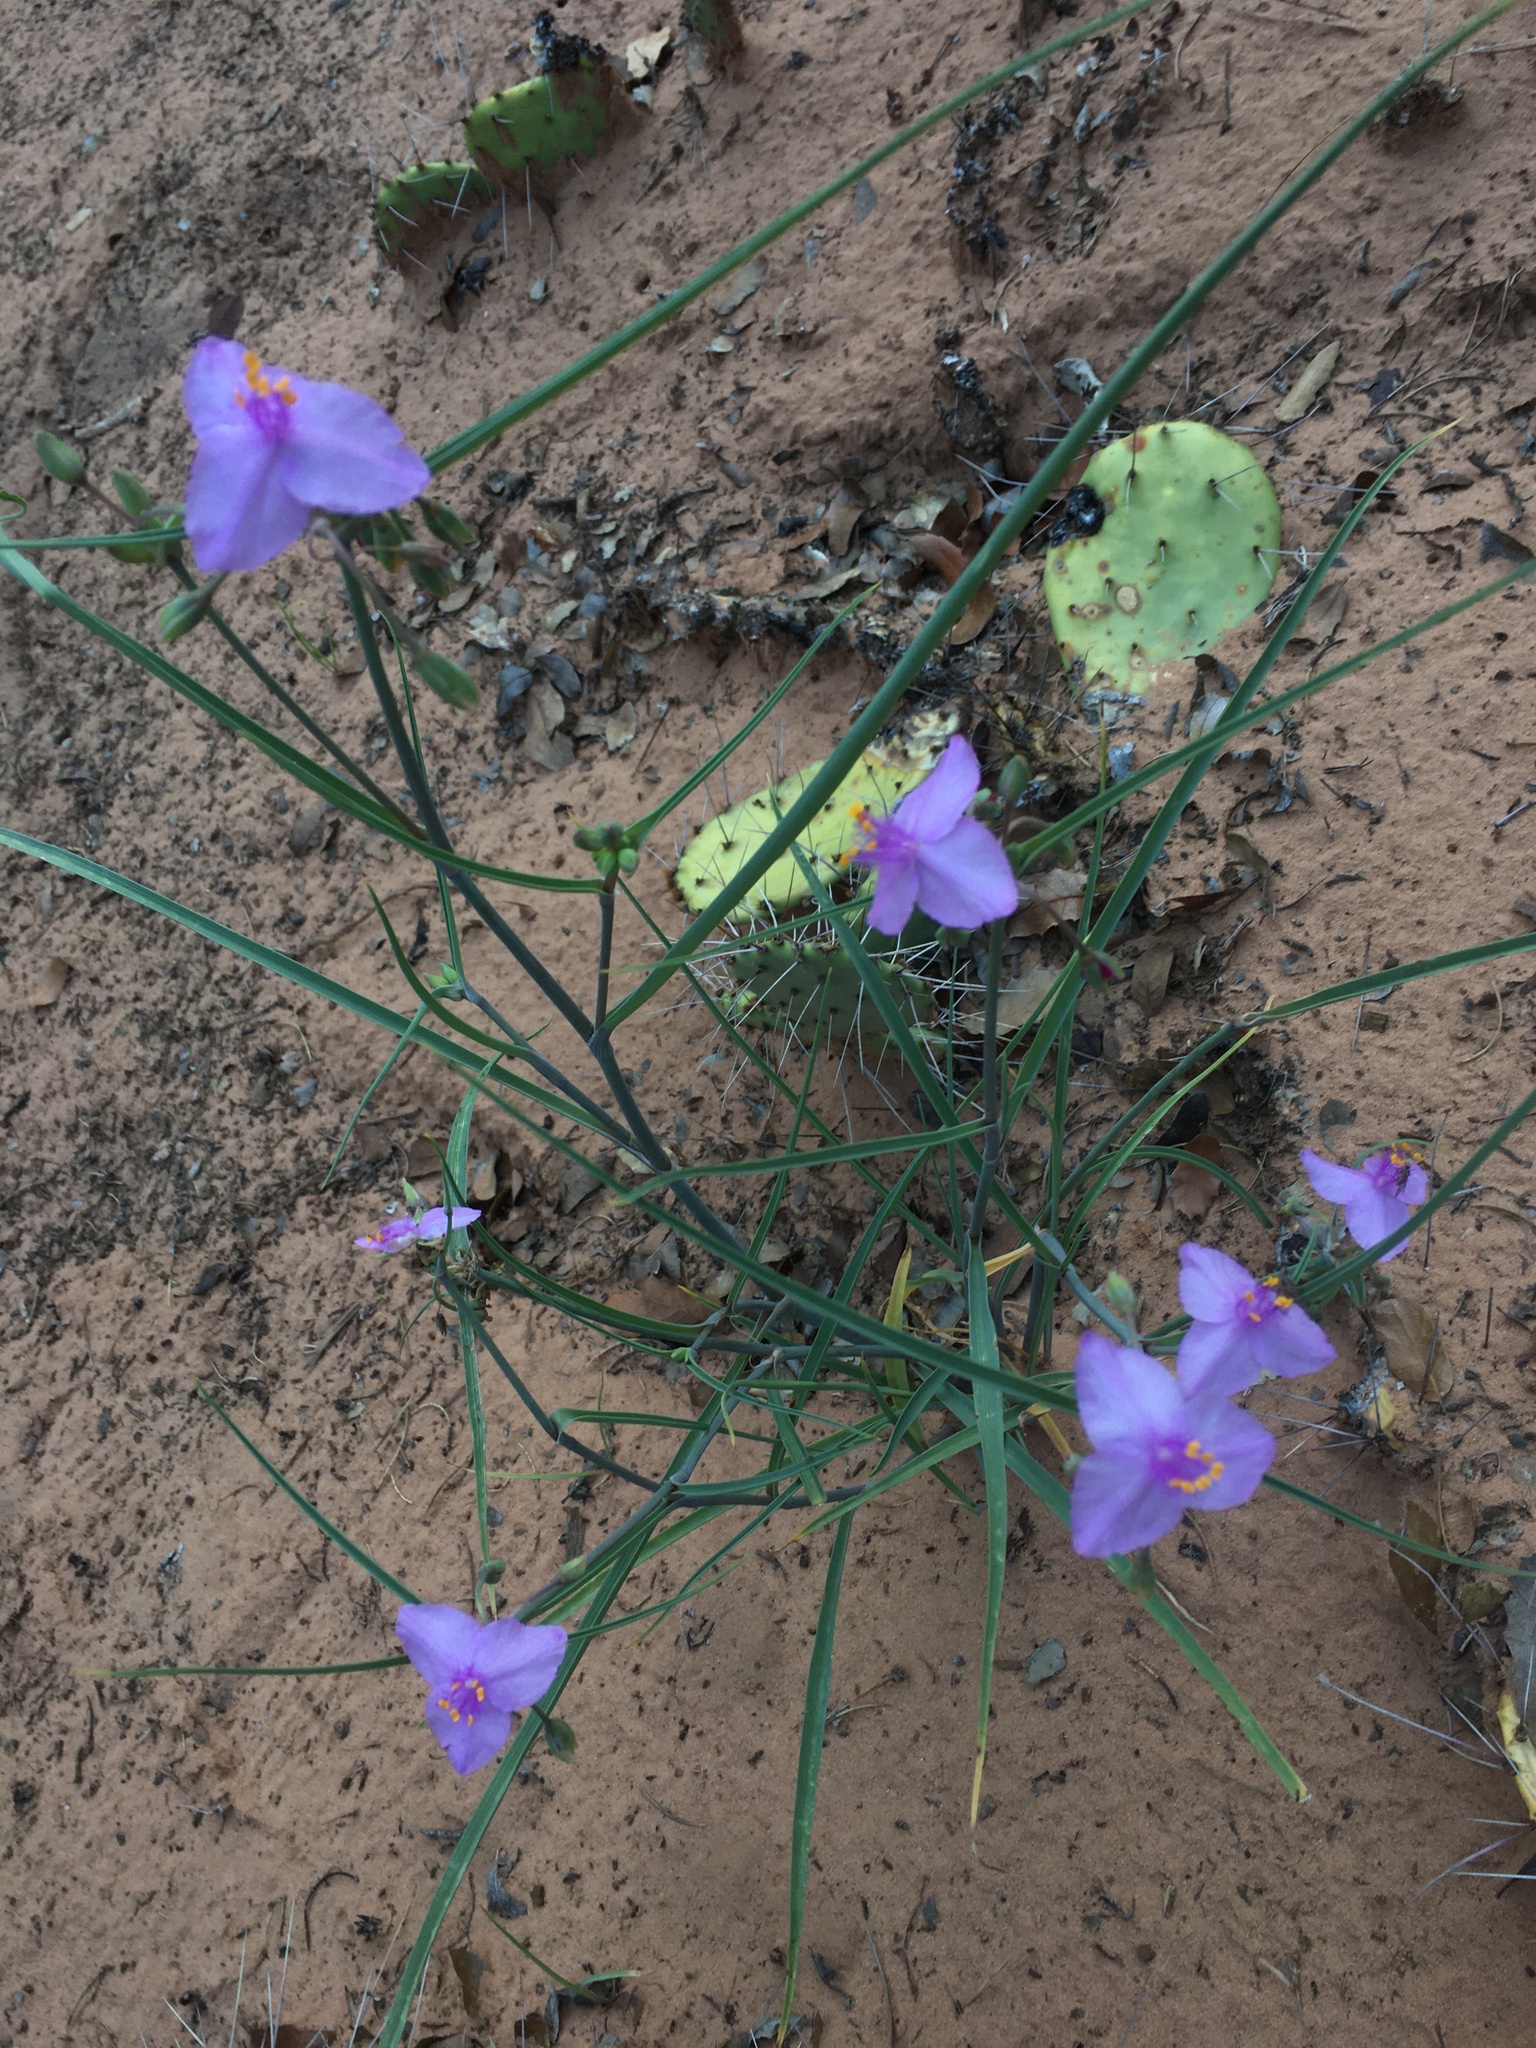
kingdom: Plantae
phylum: Tracheophyta
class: Liliopsida
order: Commelinales
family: Commelinaceae
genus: Tradescantia
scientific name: Tradescantia occidentalis
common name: Prairie spiderwort
